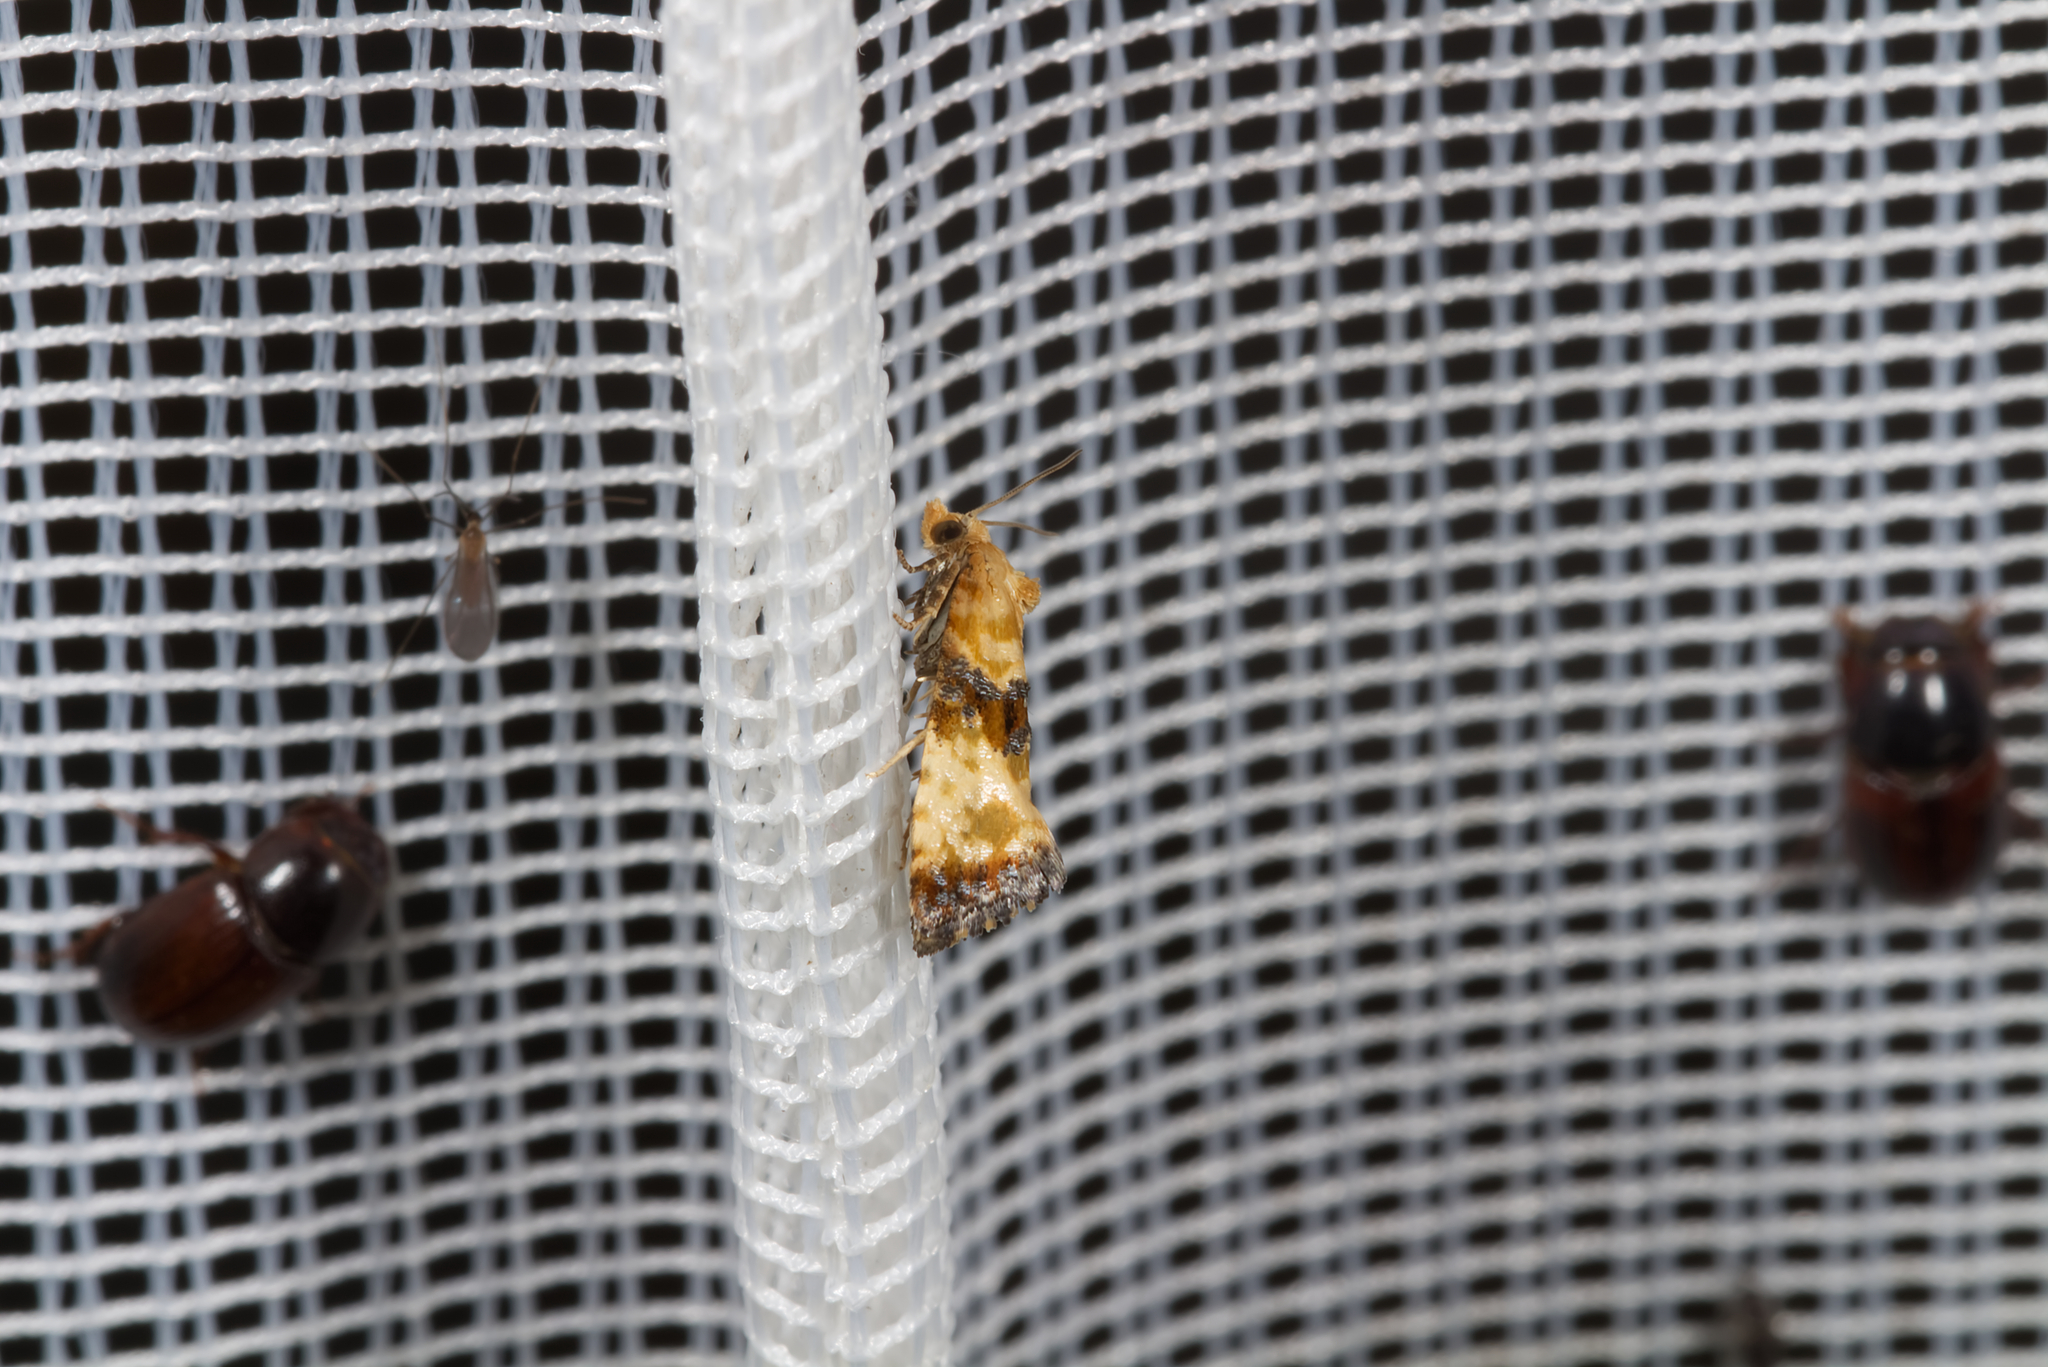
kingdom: Animalia
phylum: Arthropoda
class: Insecta
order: Lepidoptera
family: Tortricidae
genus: Eupoecilia
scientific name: Eupoecilia angustana
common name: Marbled conch
